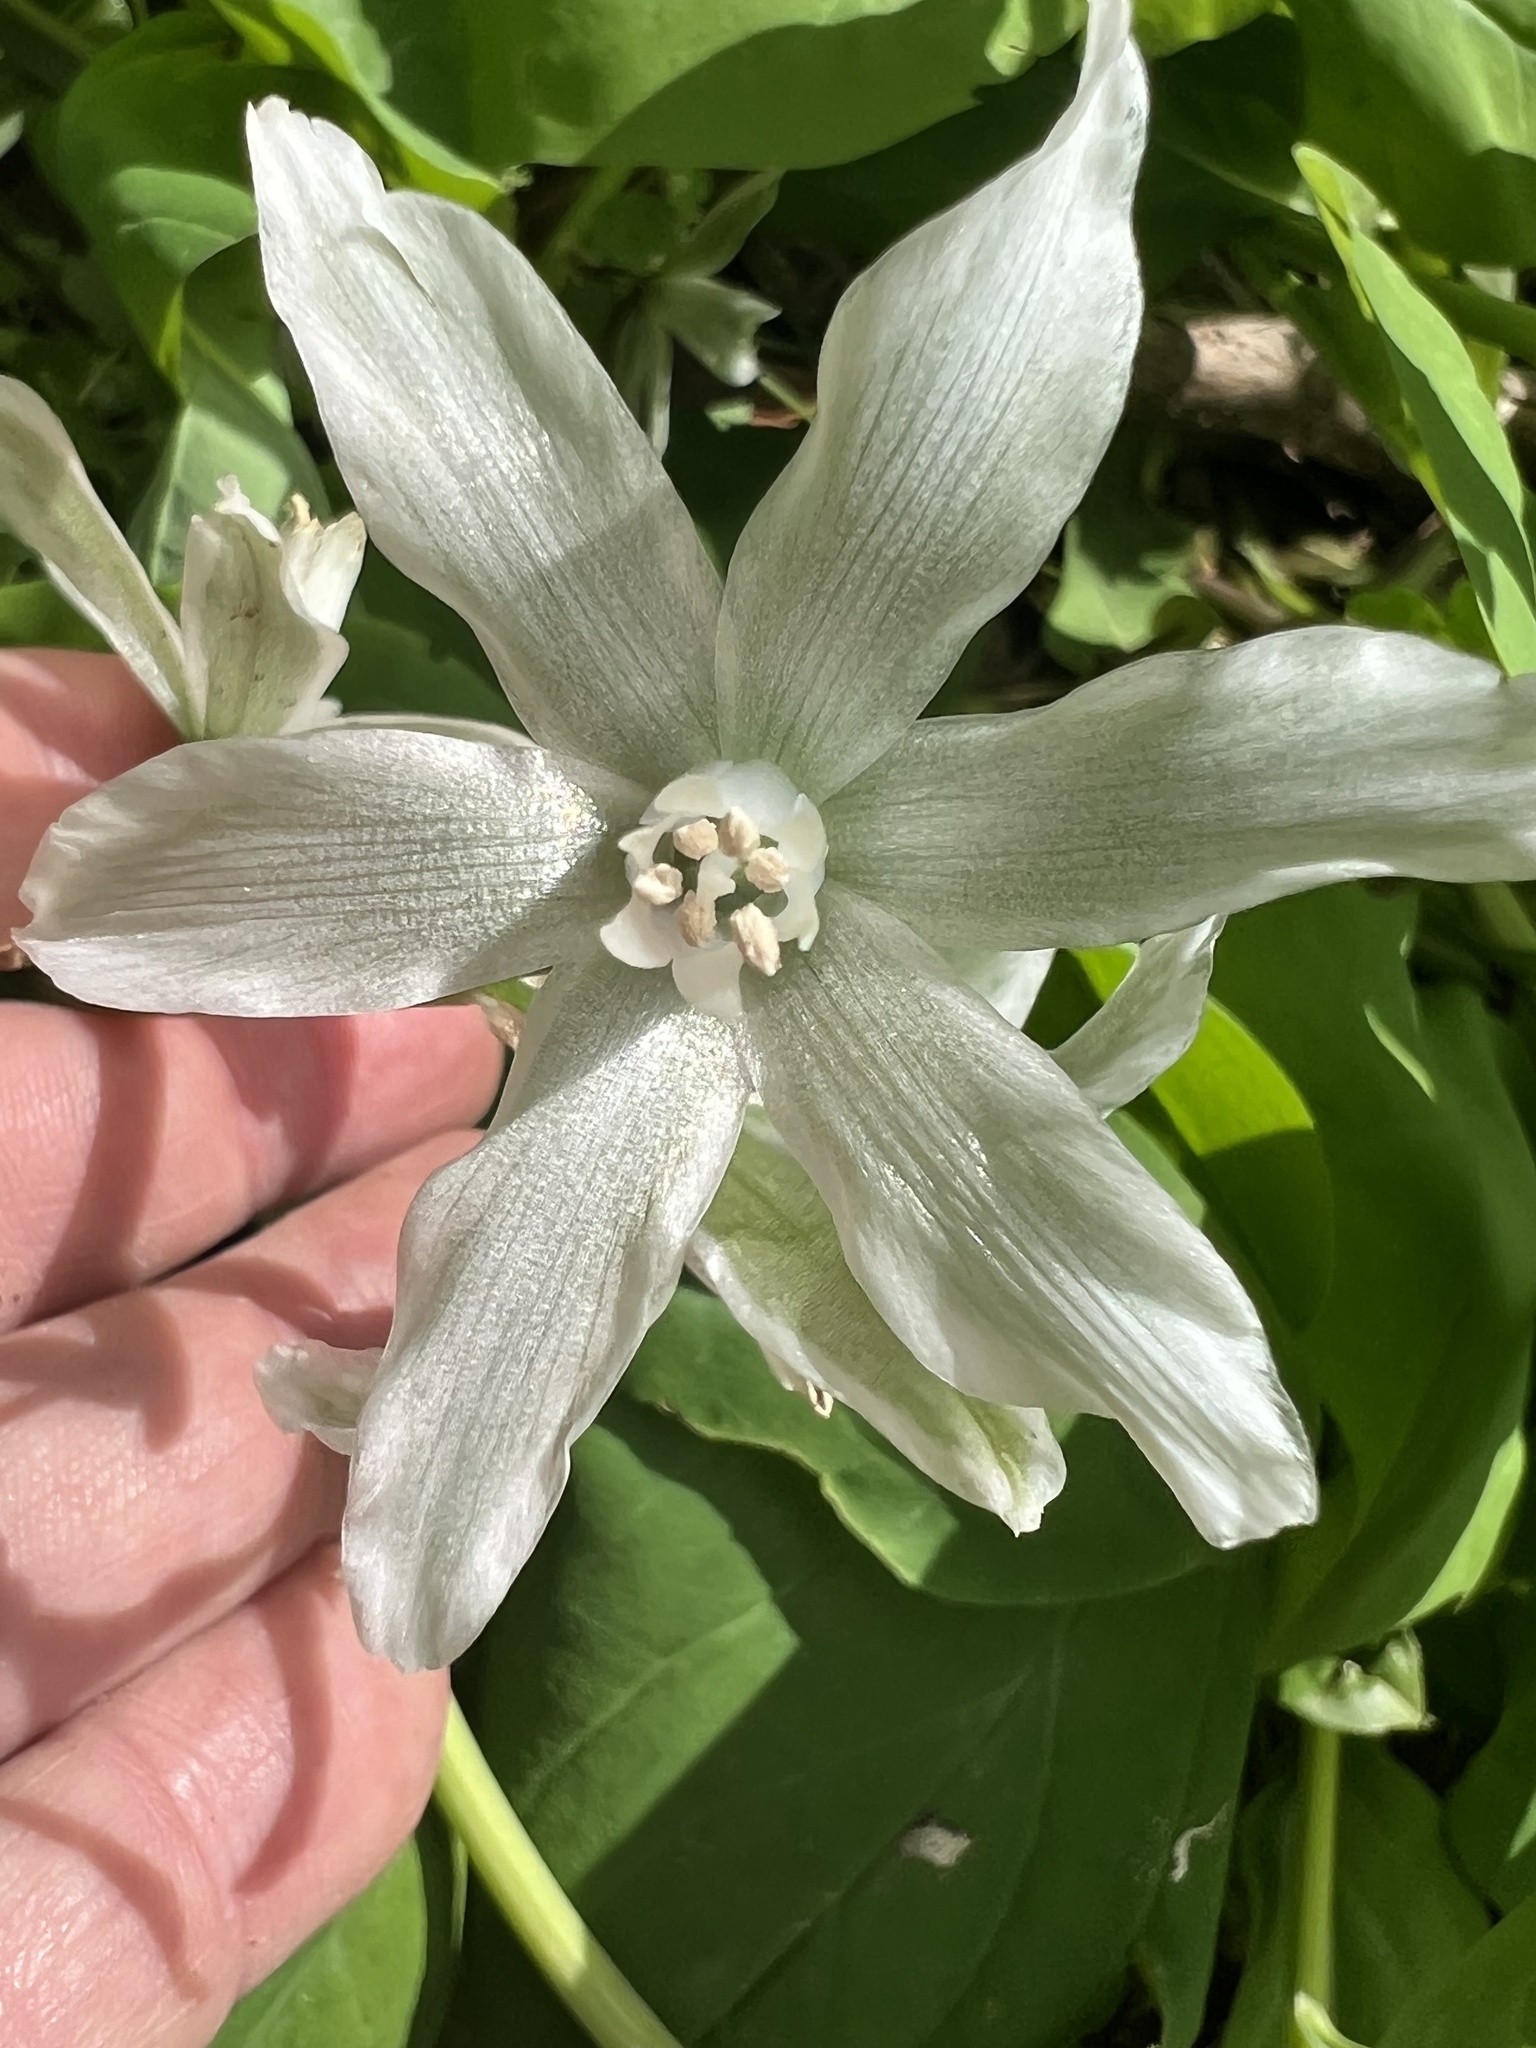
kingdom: Plantae
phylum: Tracheophyta
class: Liliopsida
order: Asparagales
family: Asparagaceae
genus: Ornithogalum
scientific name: Ornithogalum nutans
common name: Drooping star-of-bethlehem
